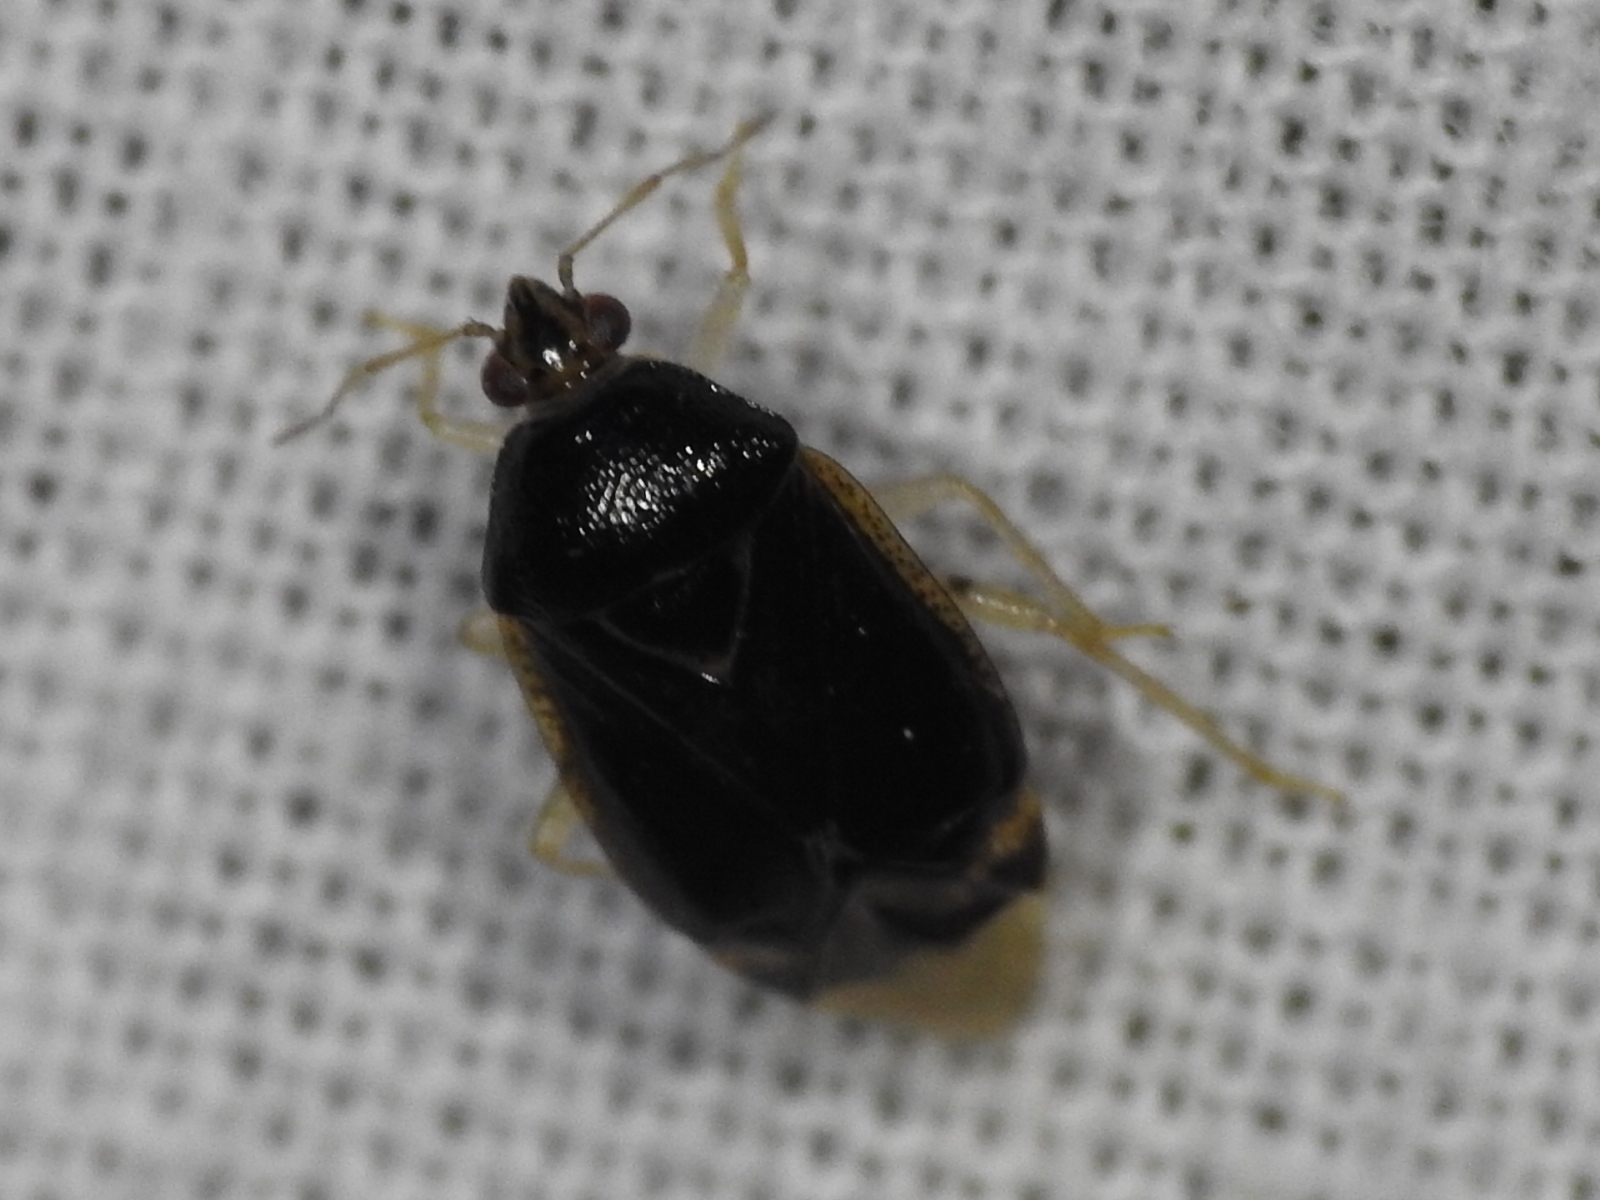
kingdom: Animalia
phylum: Arthropoda
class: Insecta
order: Hemiptera
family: Miridae
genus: Deraeocoris
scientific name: Deraeocoris davisi
